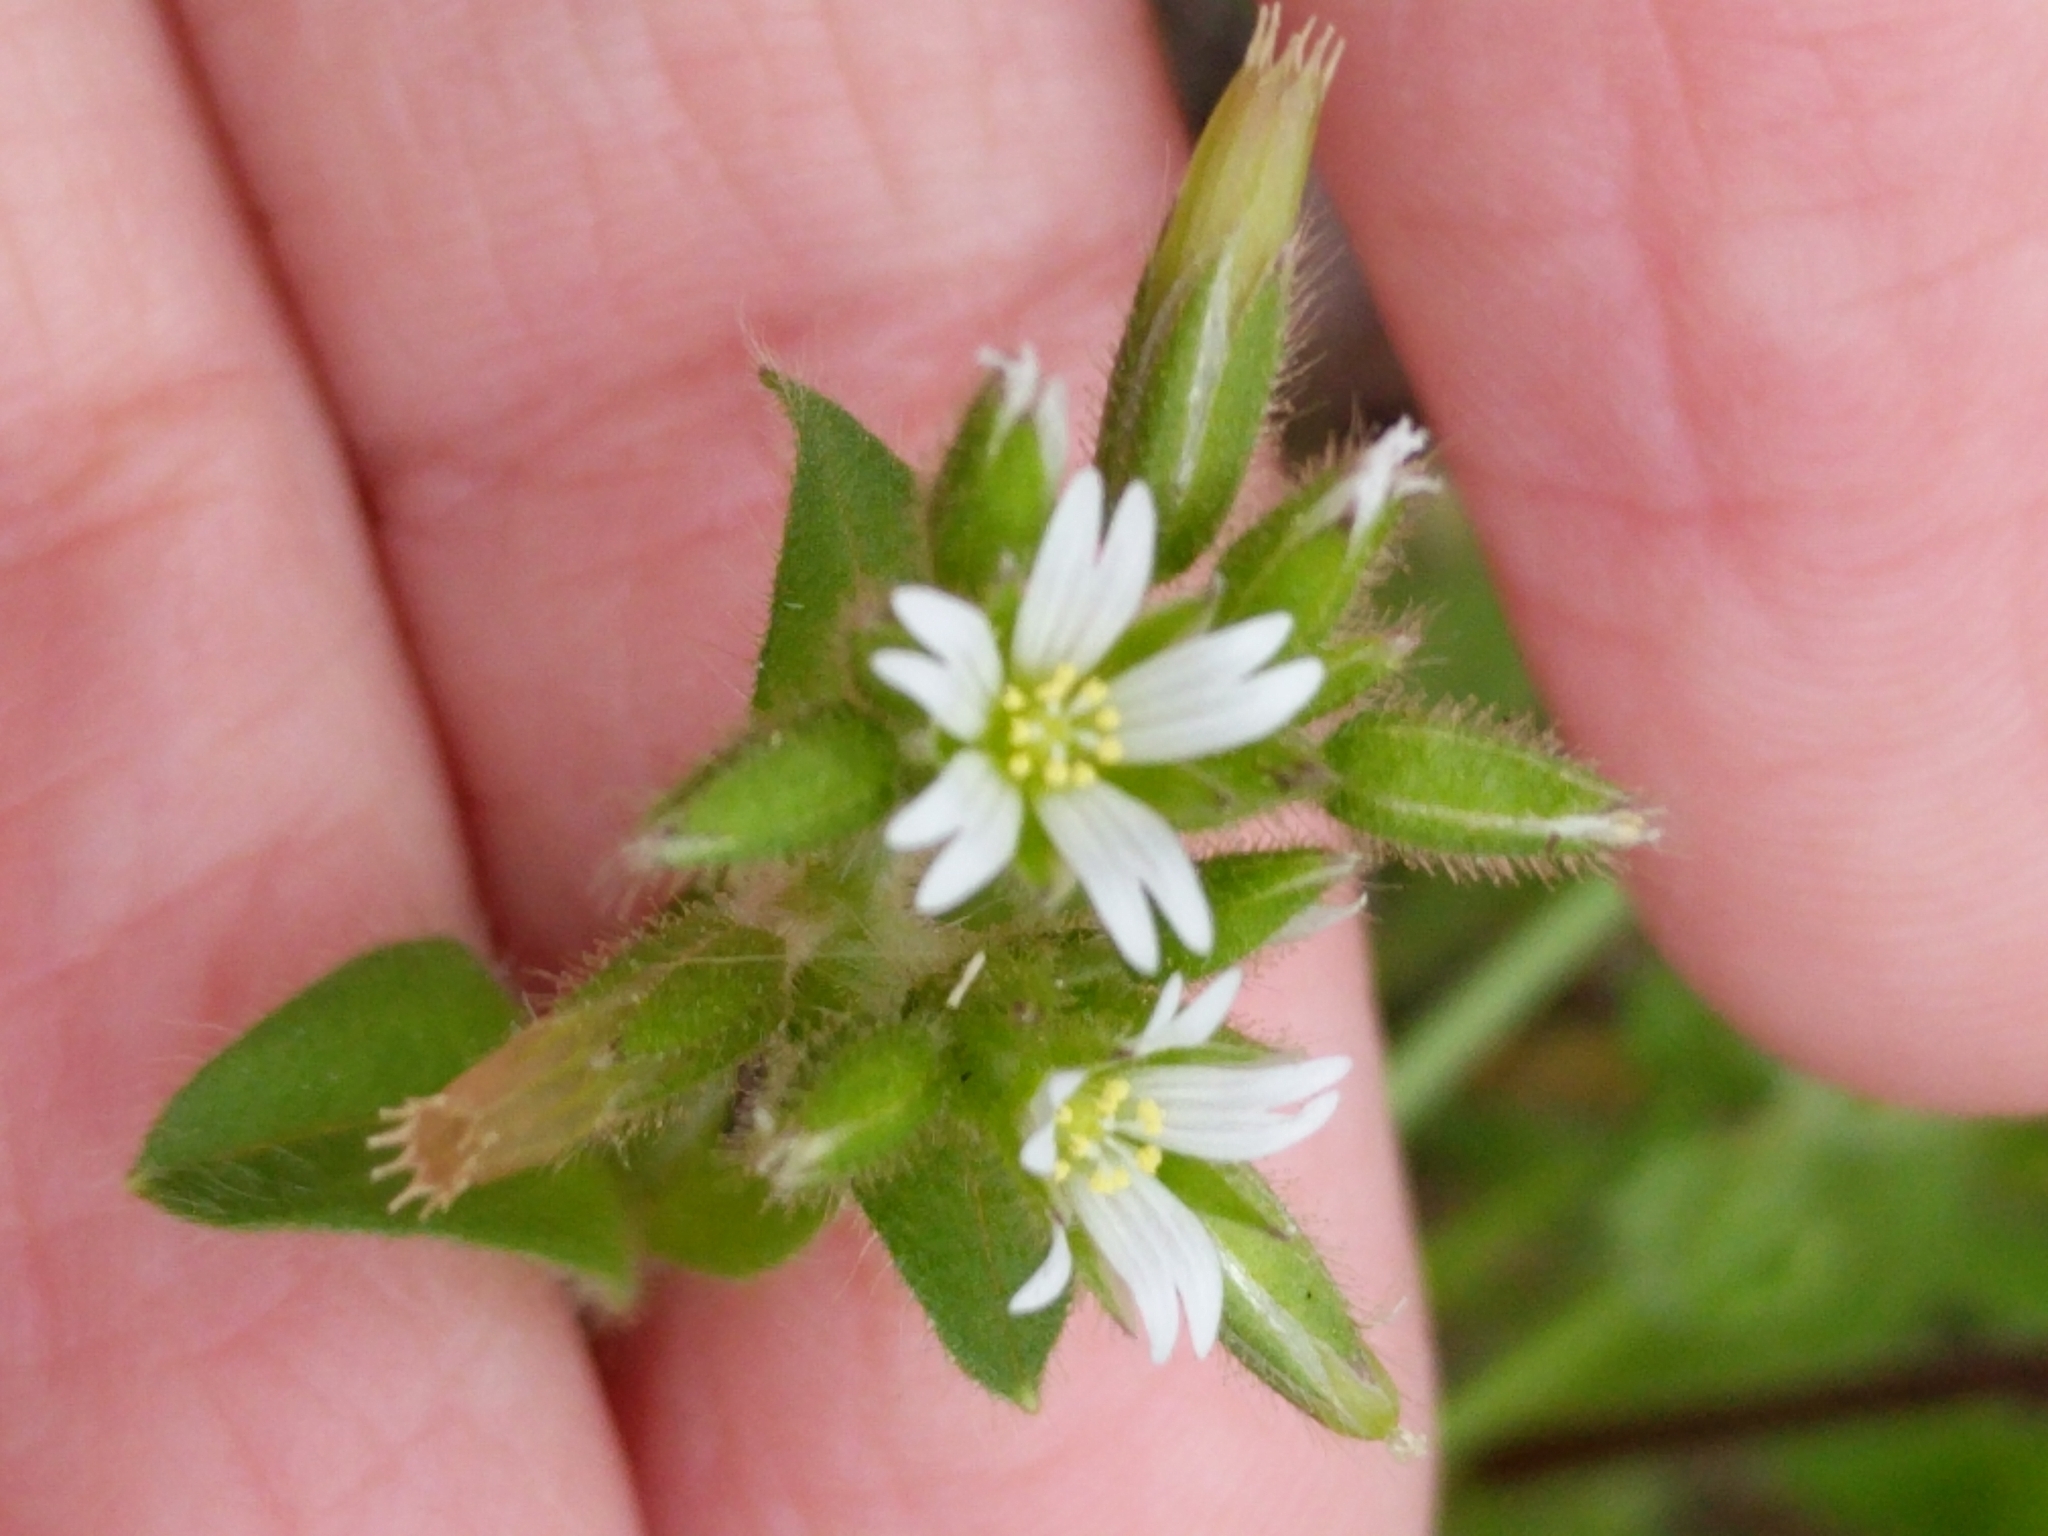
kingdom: Plantae
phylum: Tracheophyta
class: Magnoliopsida
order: Caryophyllales
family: Caryophyllaceae
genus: Cerastium
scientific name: Cerastium glomeratum
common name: Sticky chickweed
